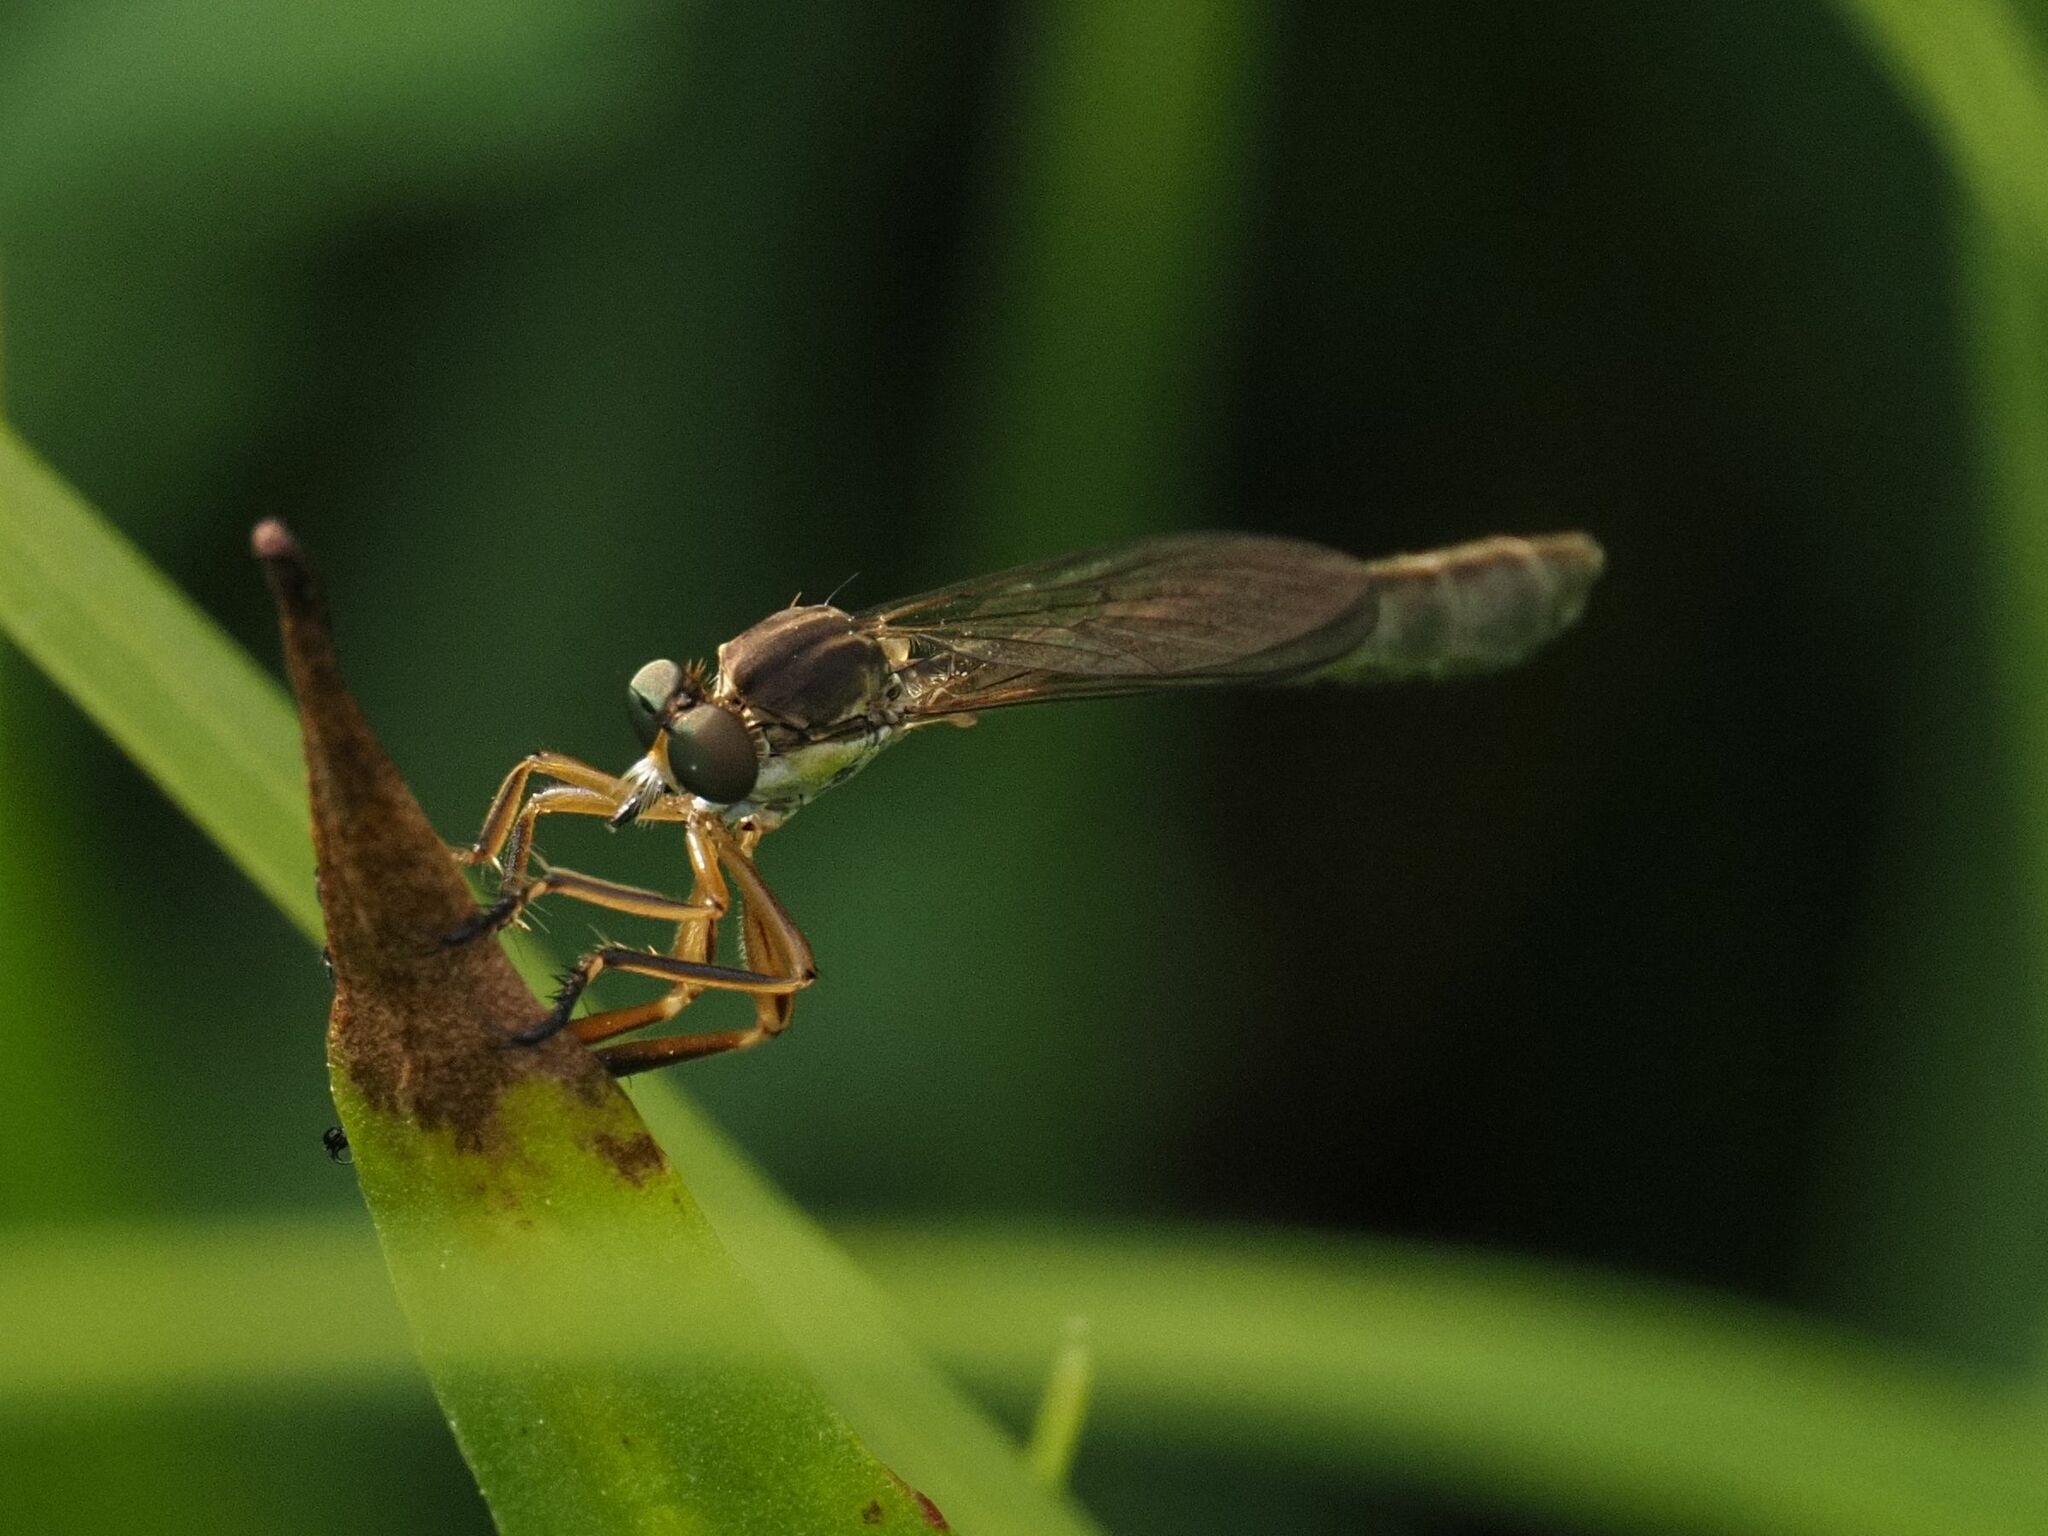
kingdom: Animalia
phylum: Arthropoda
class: Insecta
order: Diptera
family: Asilidae
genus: Leptogaster
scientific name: Leptogaster cylindrica
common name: Striped slender robberfly
